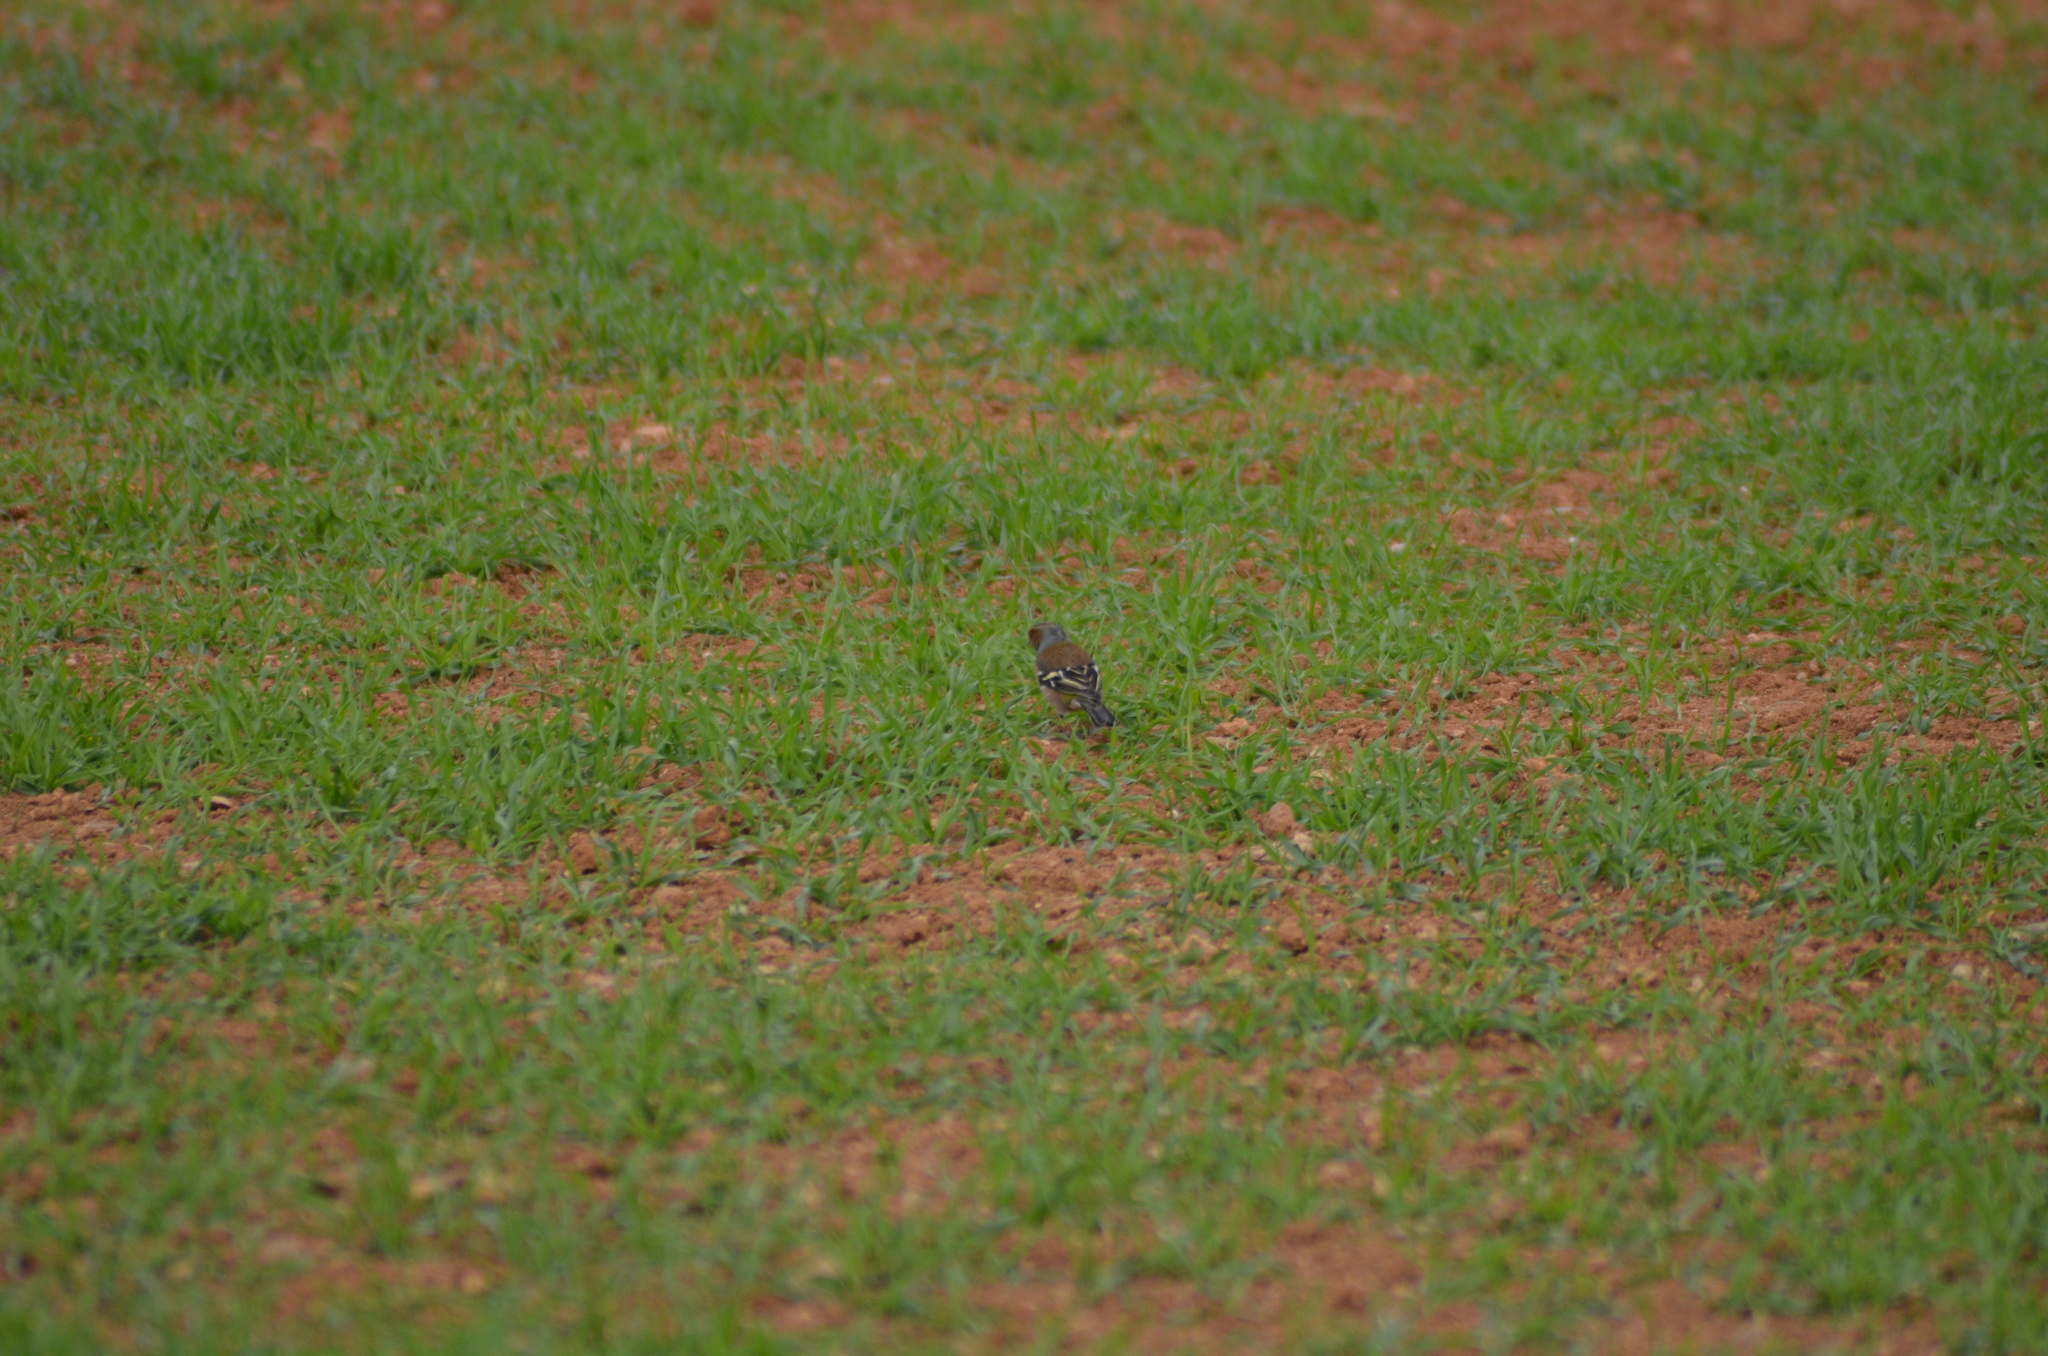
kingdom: Animalia
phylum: Chordata
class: Aves
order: Passeriformes
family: Fringillidae
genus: Fringilla
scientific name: Fringilla coelebs
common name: Common chaffinch
